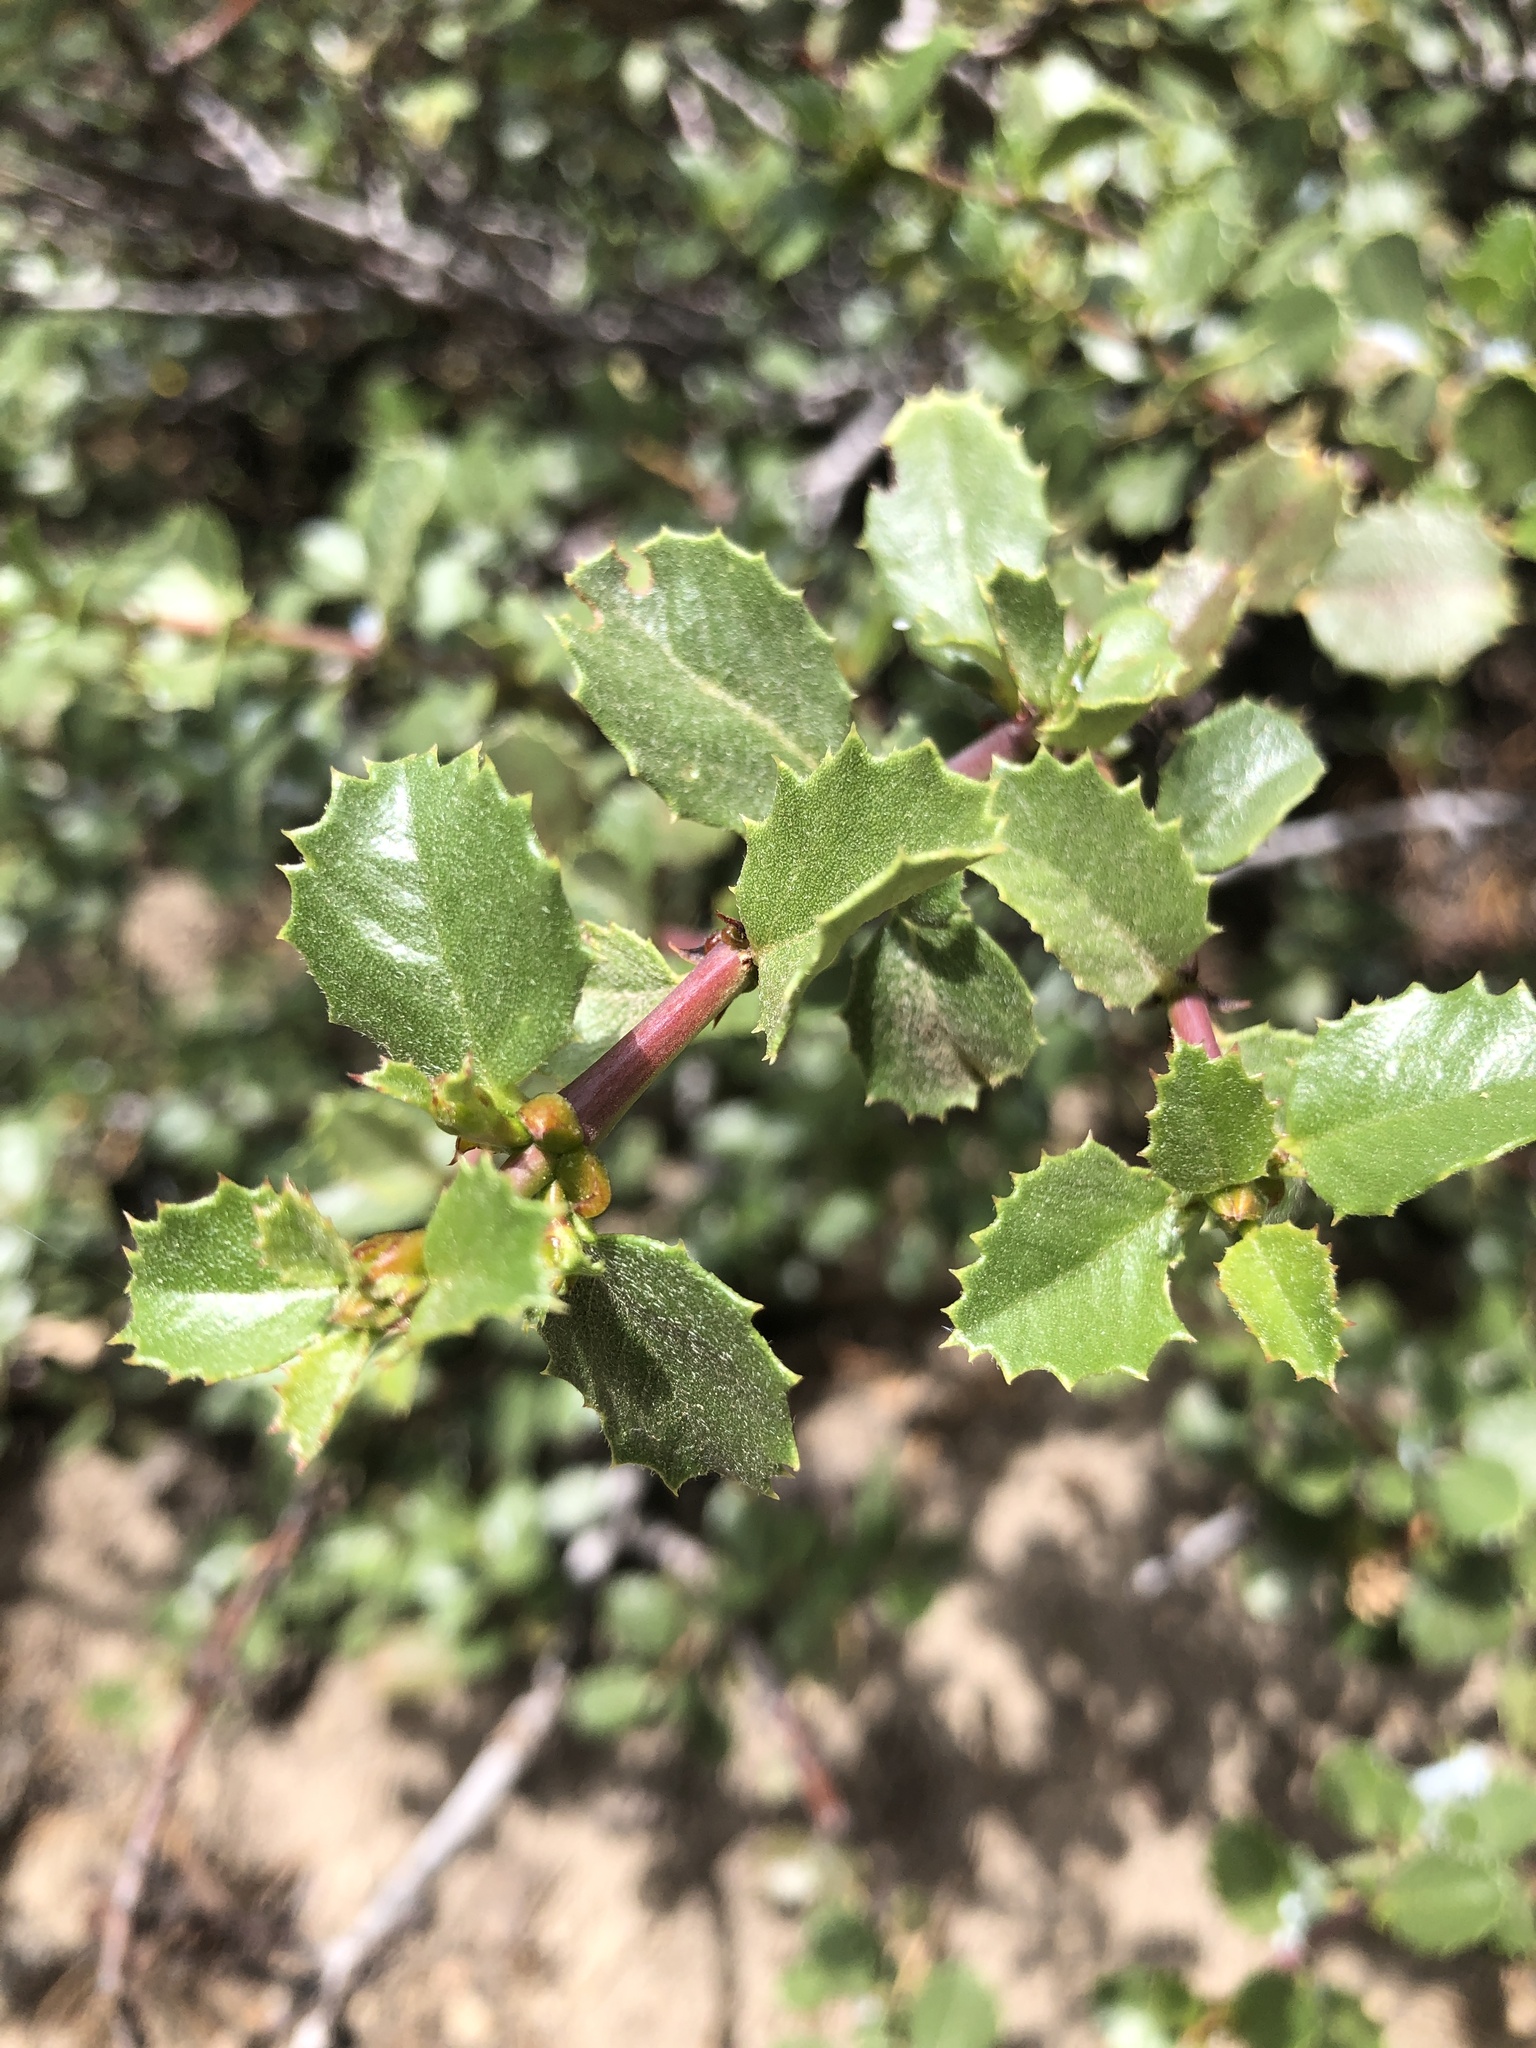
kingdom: Plantae
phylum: Tracheophyta
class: Magnoliopsida
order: Rosales
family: Rhamnaceae
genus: Ceanothus
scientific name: Ceanothus pinetorum
